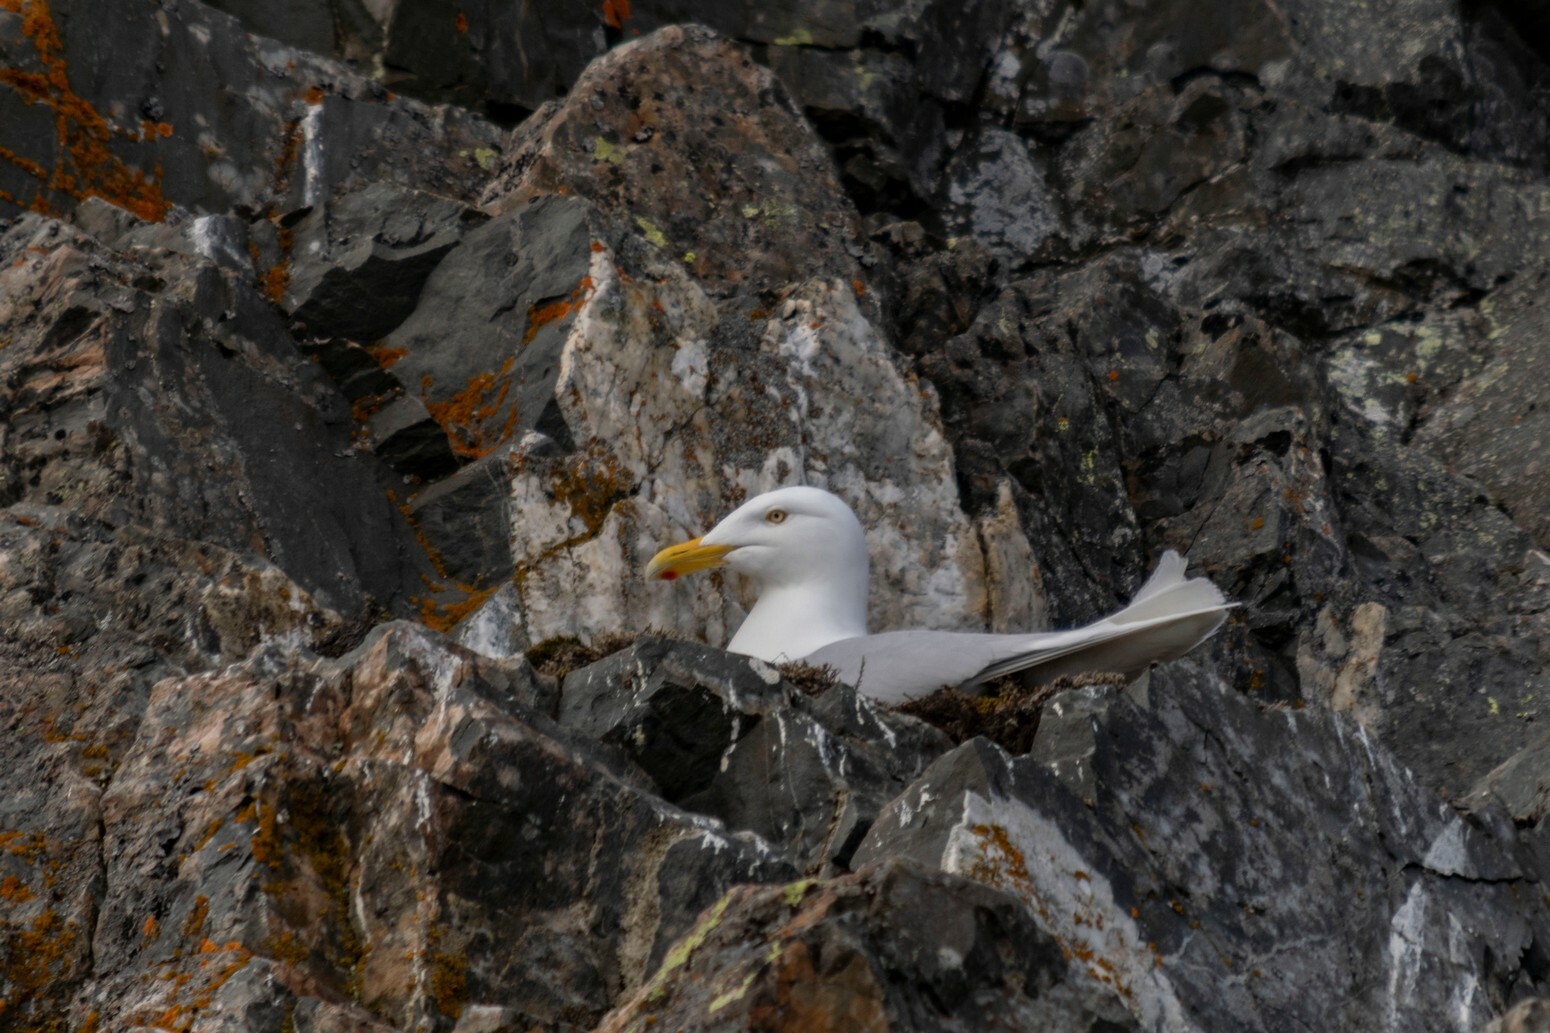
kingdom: Animalia
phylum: Chordata
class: Aves
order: Charadriiformes
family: Laridae
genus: Larus
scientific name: Larus hyperboreus
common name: Glaucous gull
